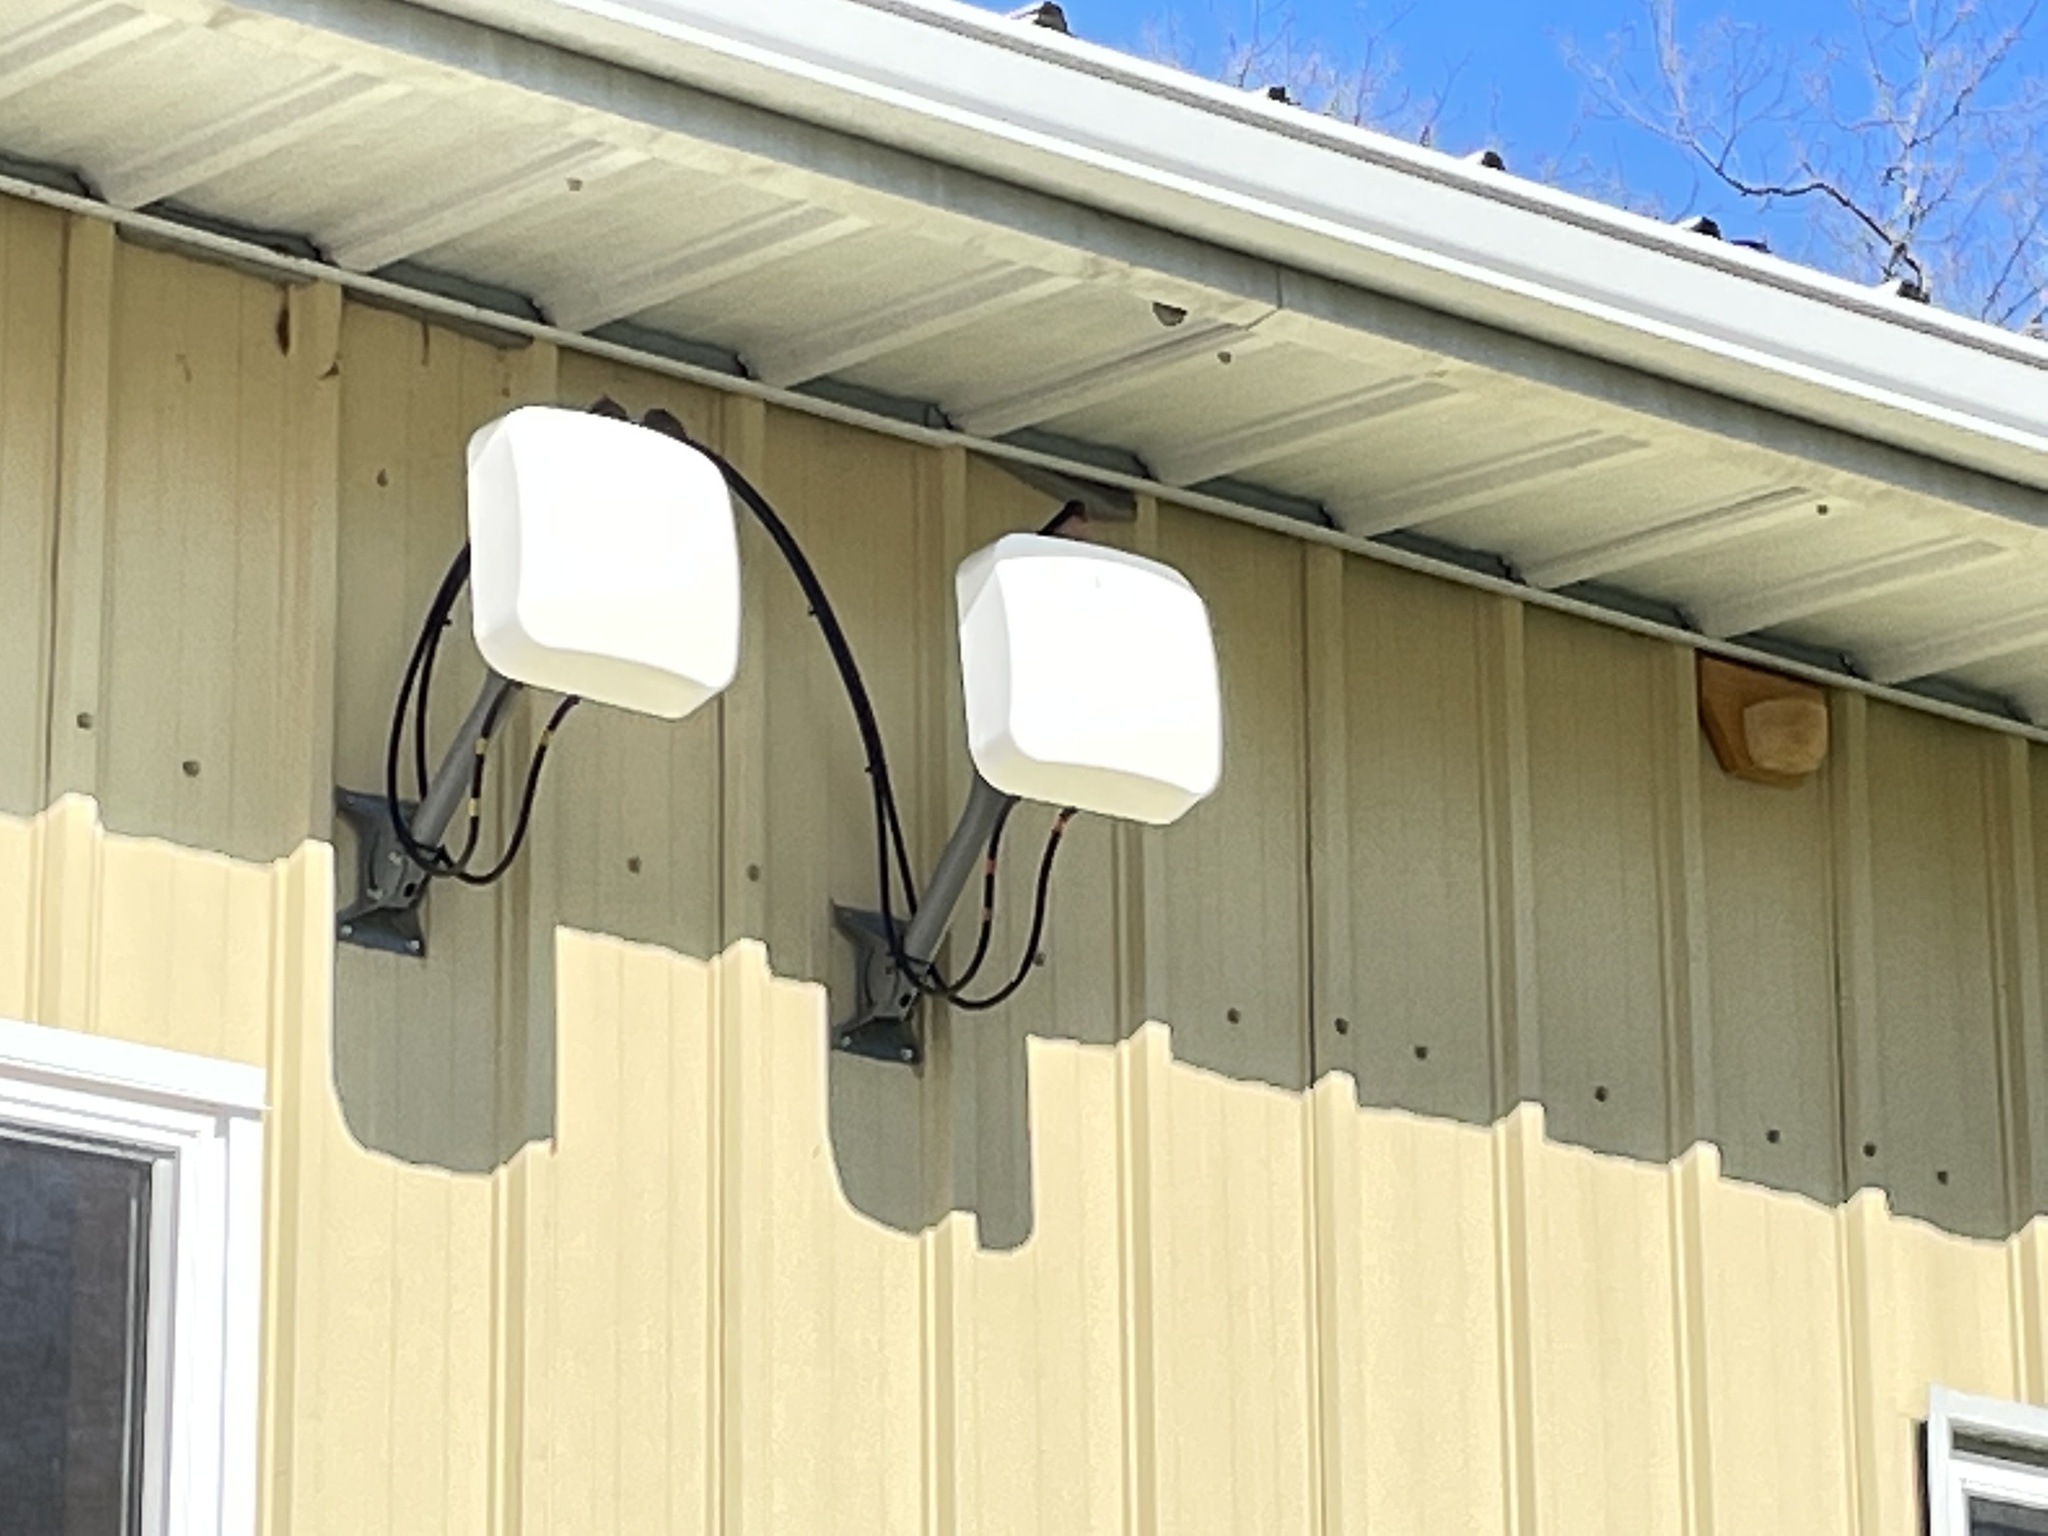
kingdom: Animalia
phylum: Chordata
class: Aves
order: Passeriformes
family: Hirundinidae
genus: Hirundo
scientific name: Hirundo rustica
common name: Barn swallow
